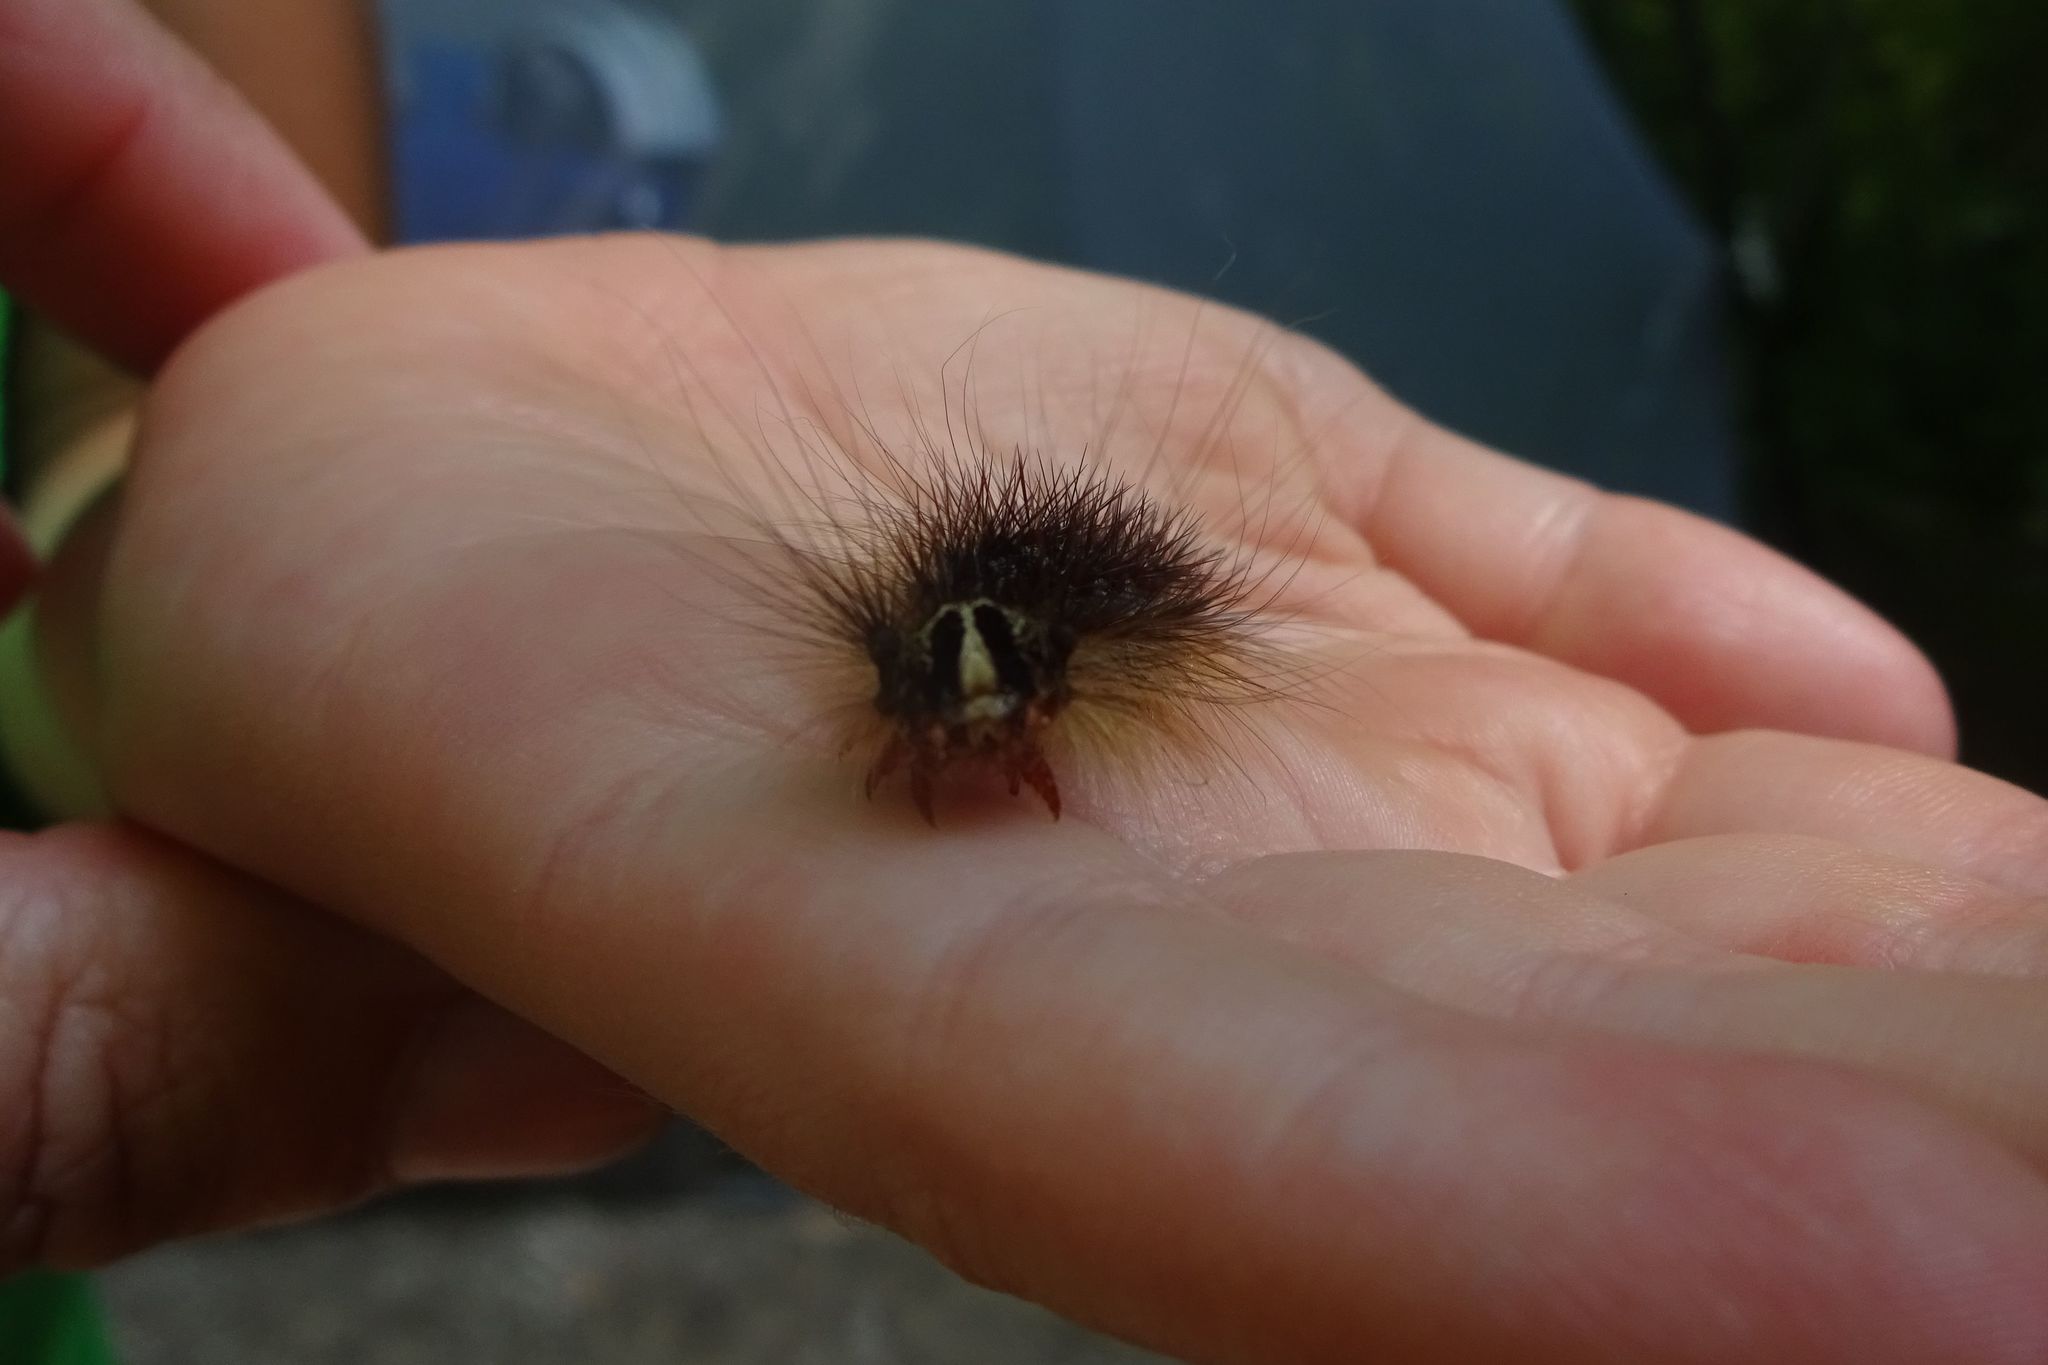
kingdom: Animalia
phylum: Arthropoda
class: Insecta
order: Lepidoptera
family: Erebidae
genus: Lymantria
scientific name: Lymantria dispar
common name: Gypsy moth
